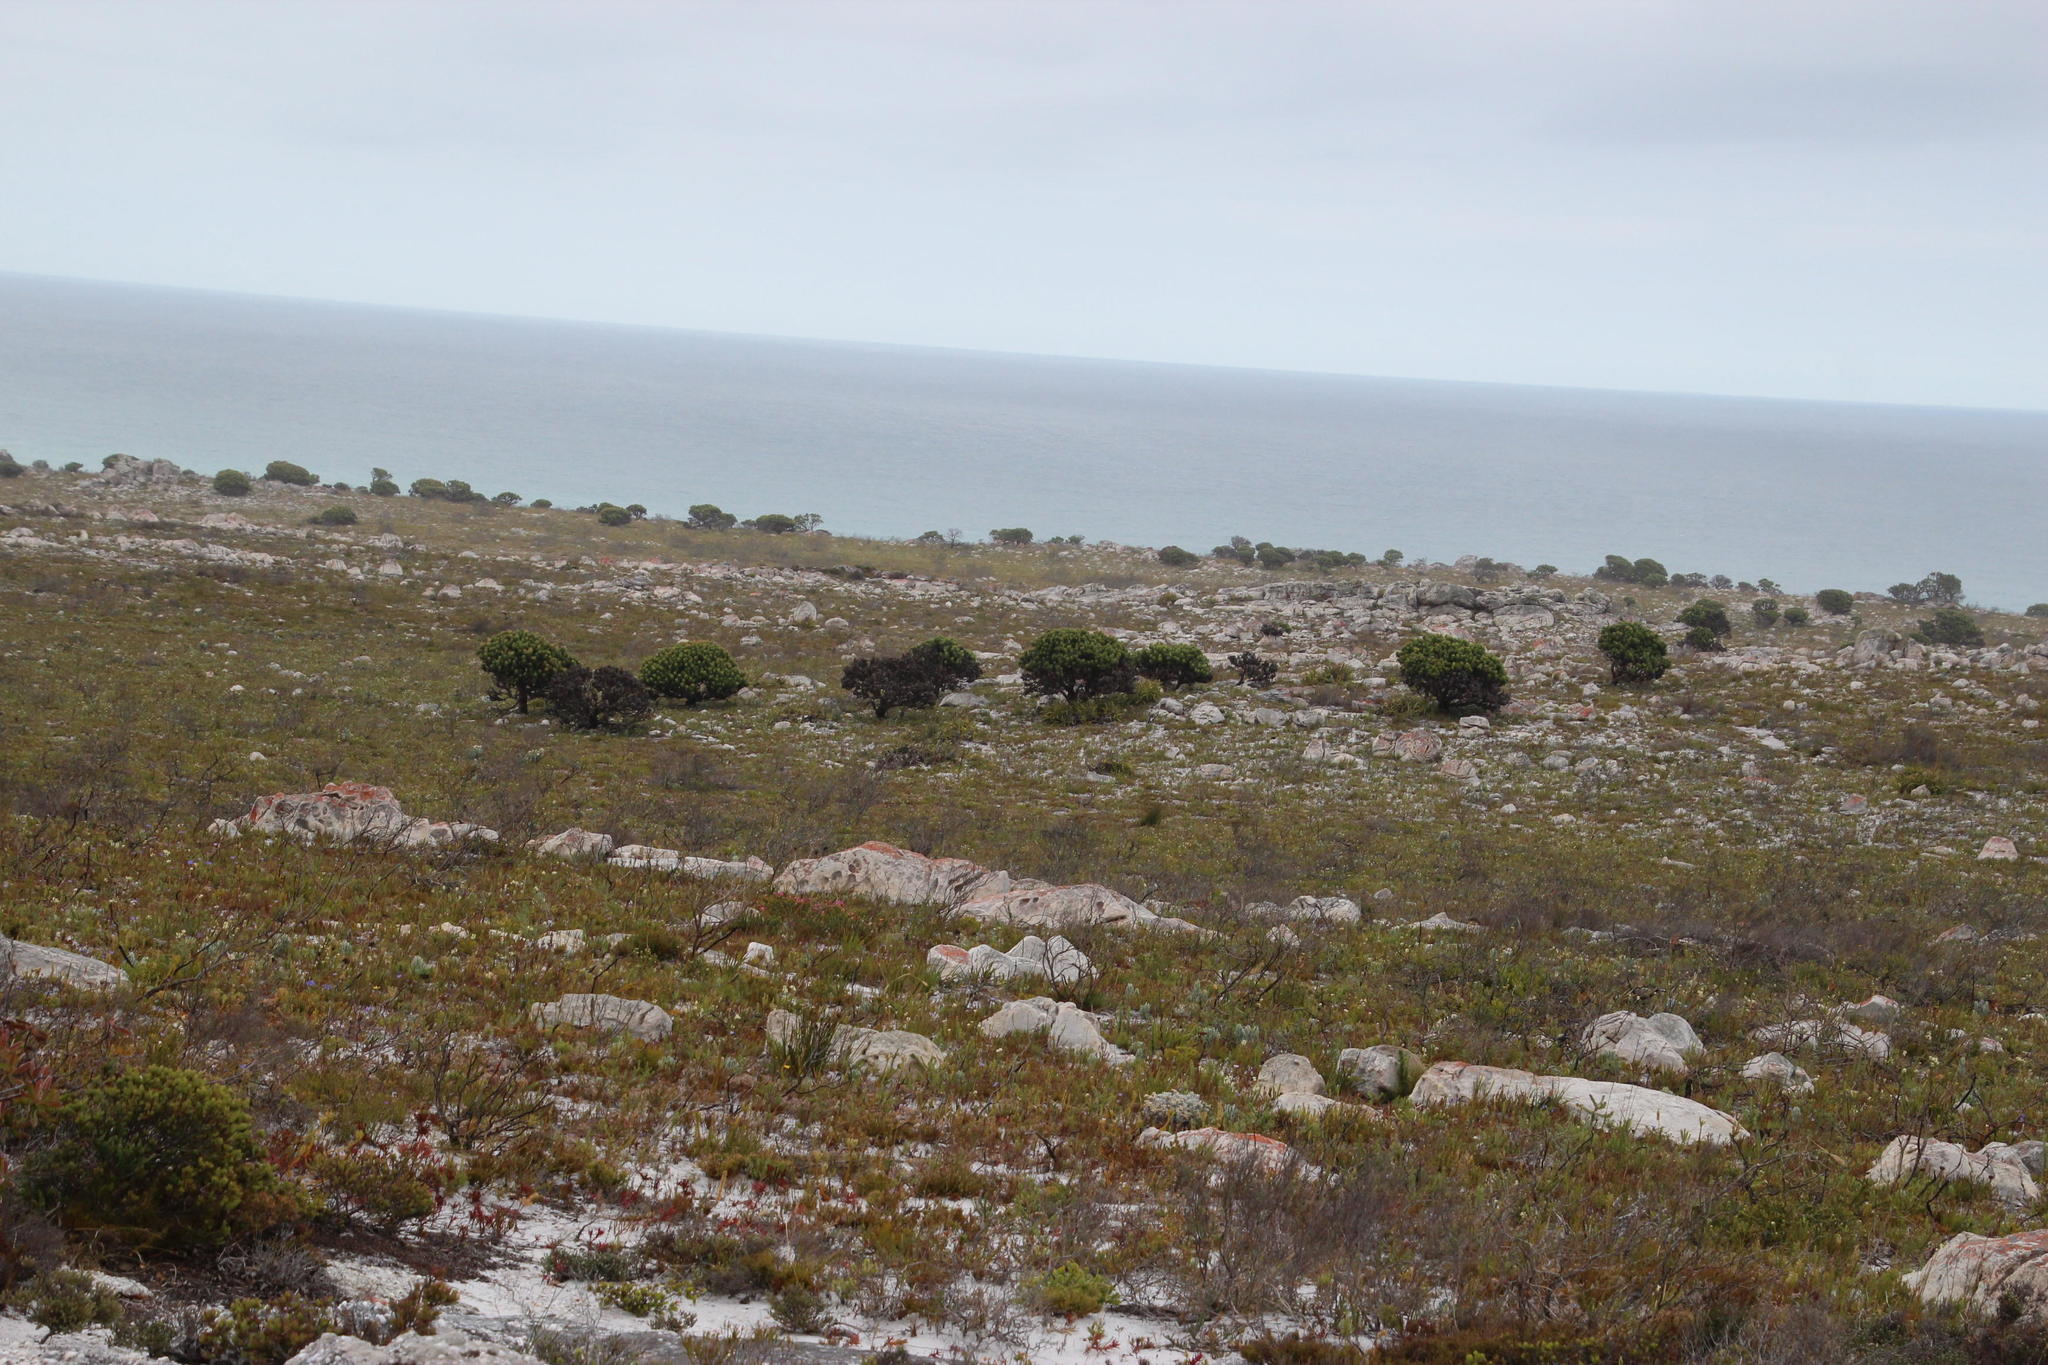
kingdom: Plantae
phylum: Tracheophyta
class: Magnoliopsida
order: Proteales
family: Proteaceae
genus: Mimetes
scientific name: Mimetes fimbriifolius
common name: Fringed bottlebrush
